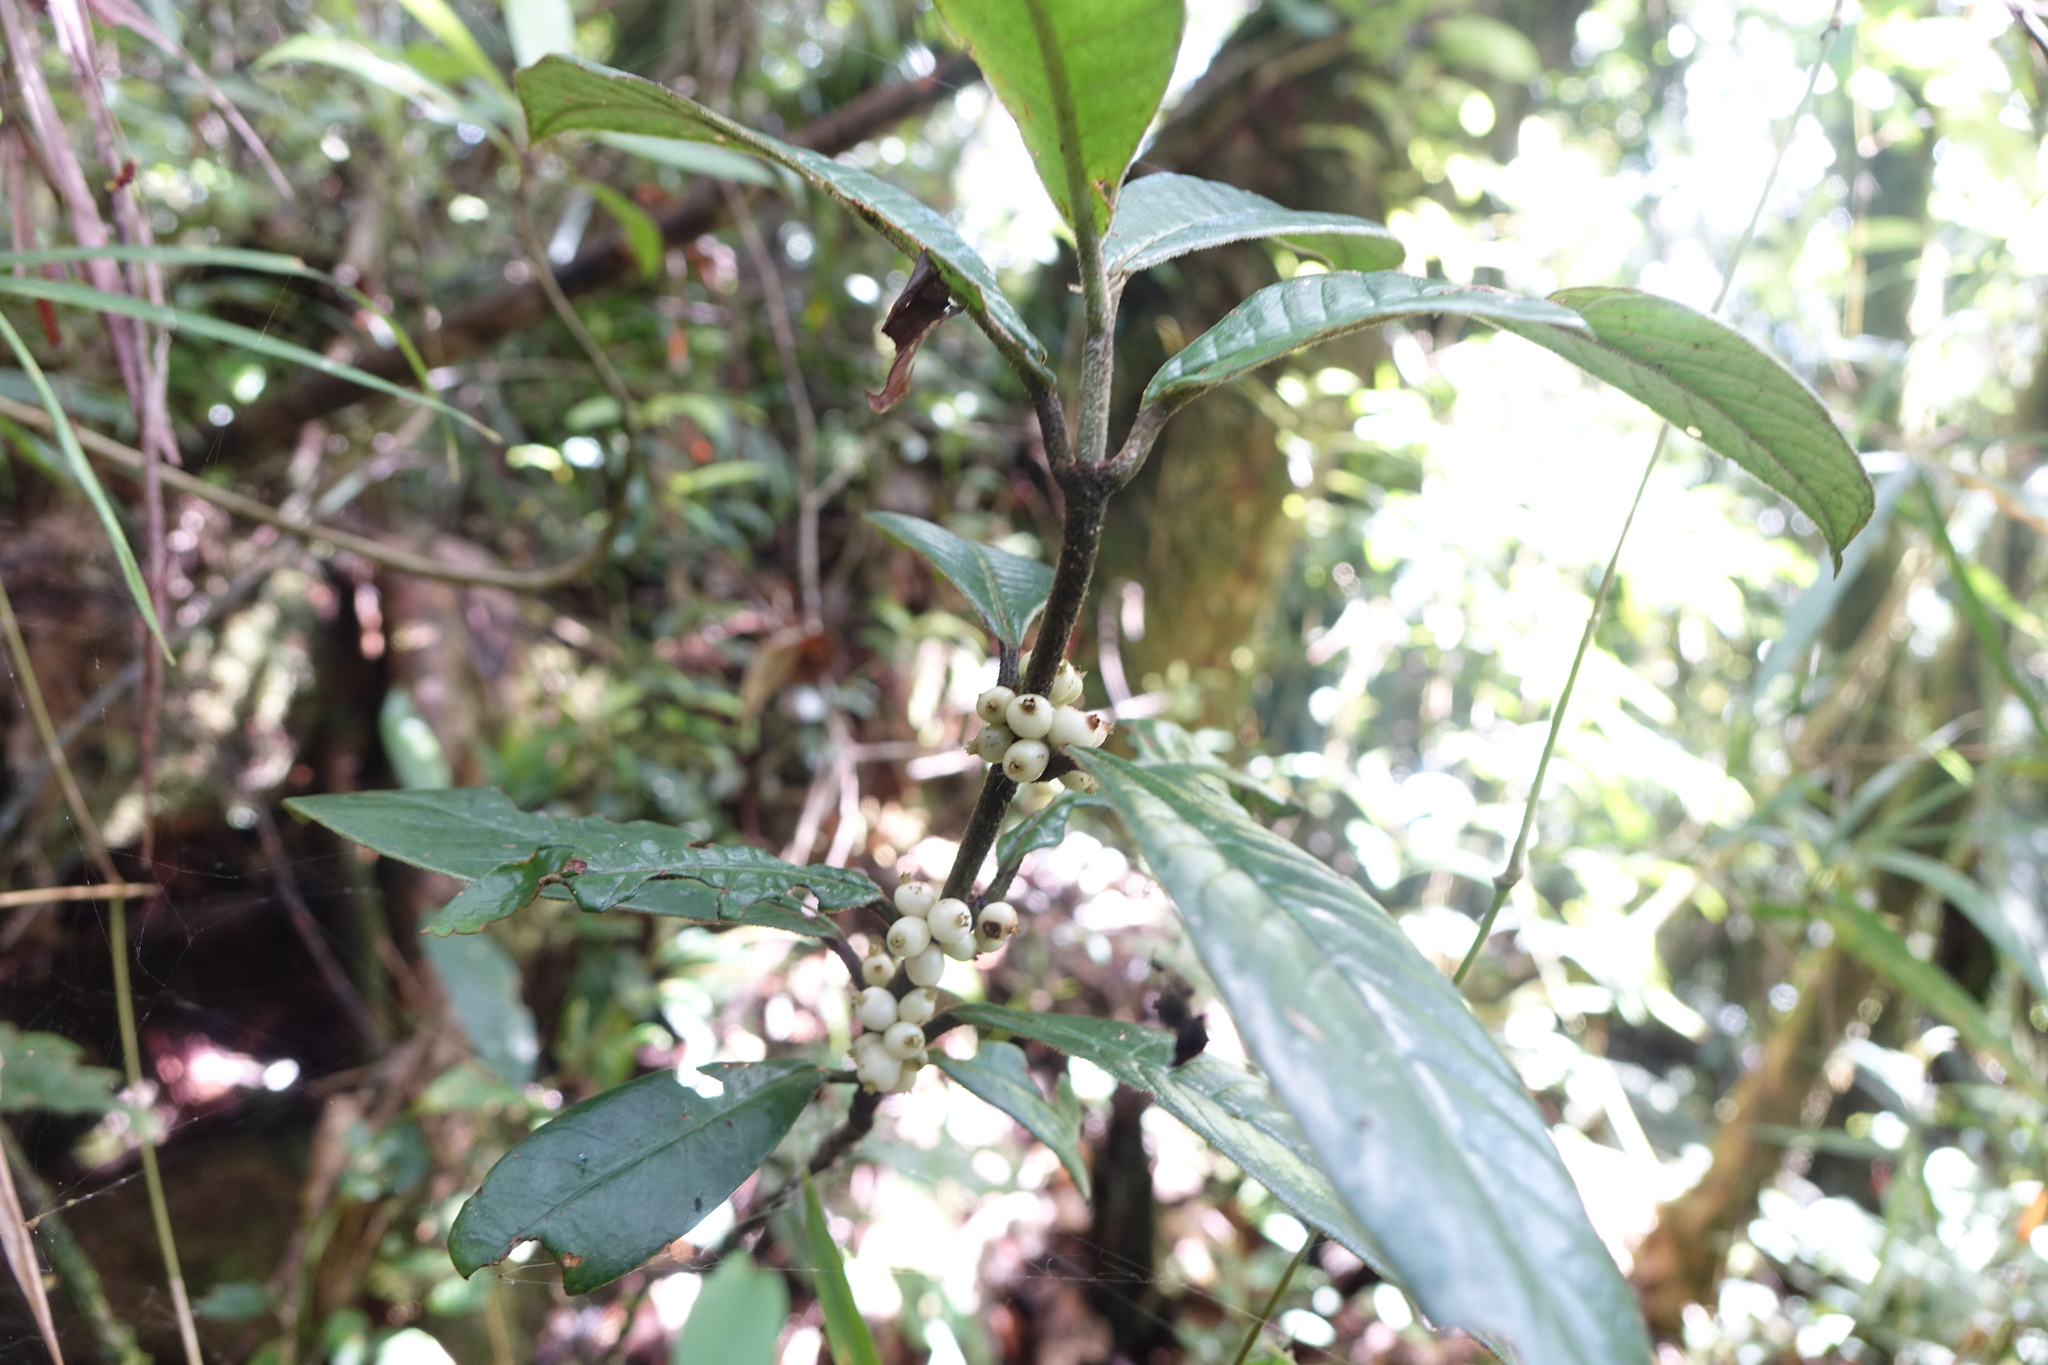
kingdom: Plantae
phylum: Tracheophyta
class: Magnoliopsida
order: Gentianales
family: Rubiaceae
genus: Psychotria
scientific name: Psychotria capuronii
